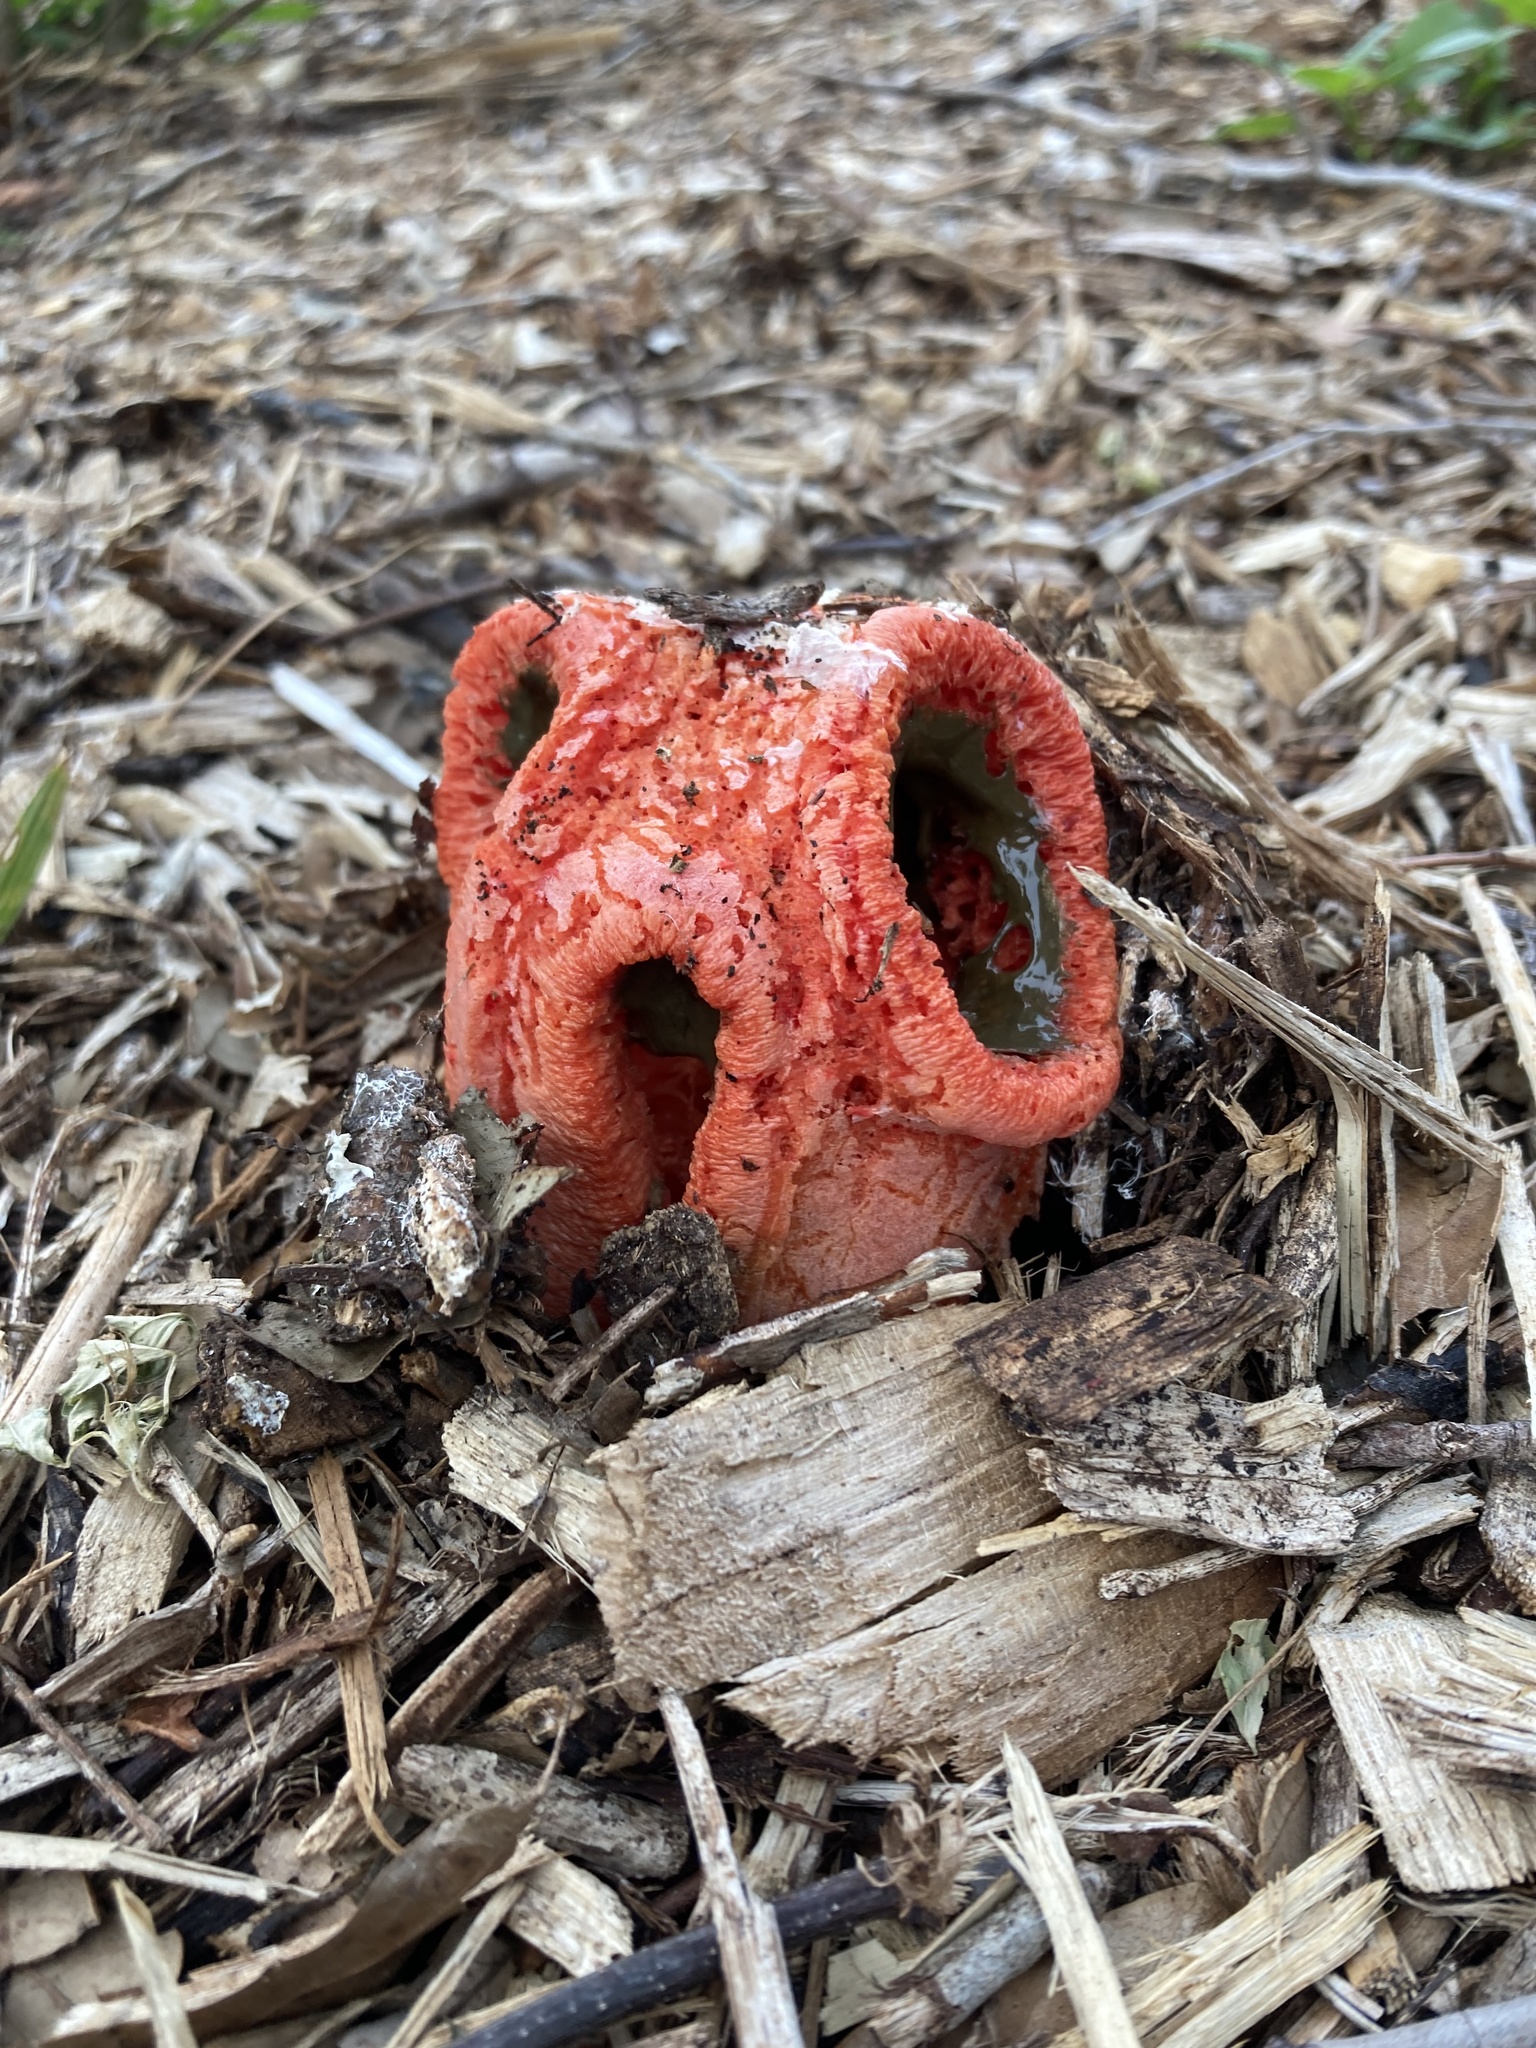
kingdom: Fungi
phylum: Basidiomycota
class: Agaricomycetes
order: Phallales
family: Phallaceae
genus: Clathrus
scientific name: Clathrus columnatus
